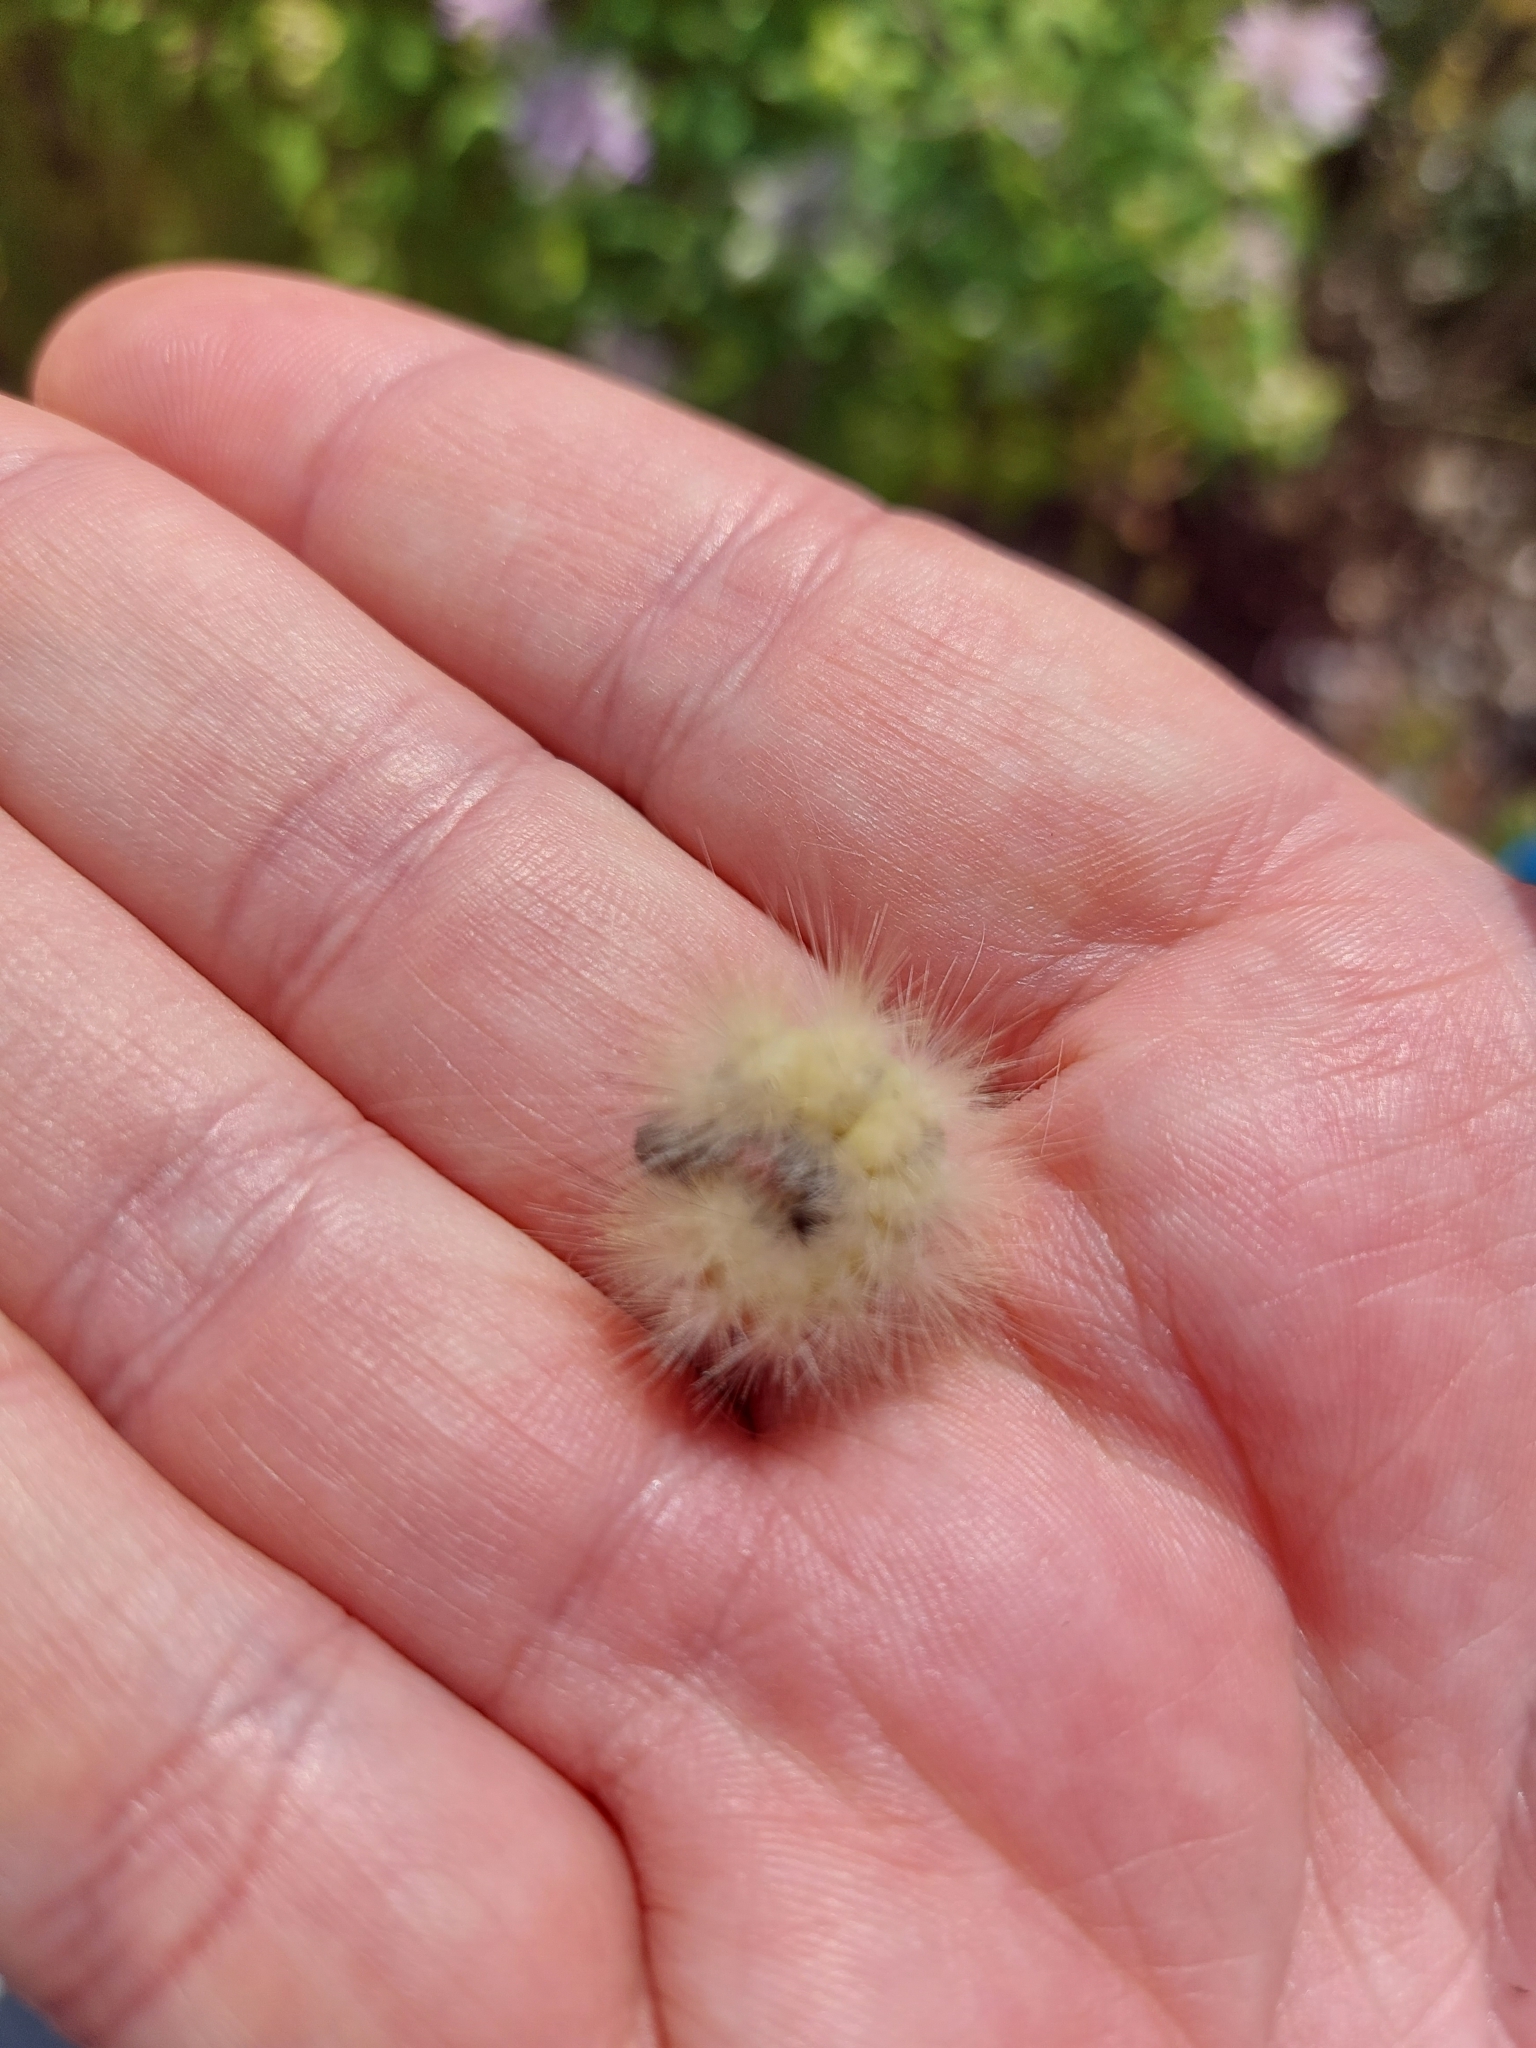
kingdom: Animalia
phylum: Arthropoda
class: Insecta
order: Lepidoptera
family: Erebidae
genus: Spilosoma
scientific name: Spilosoma virginica
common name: Virginia tiger moth
